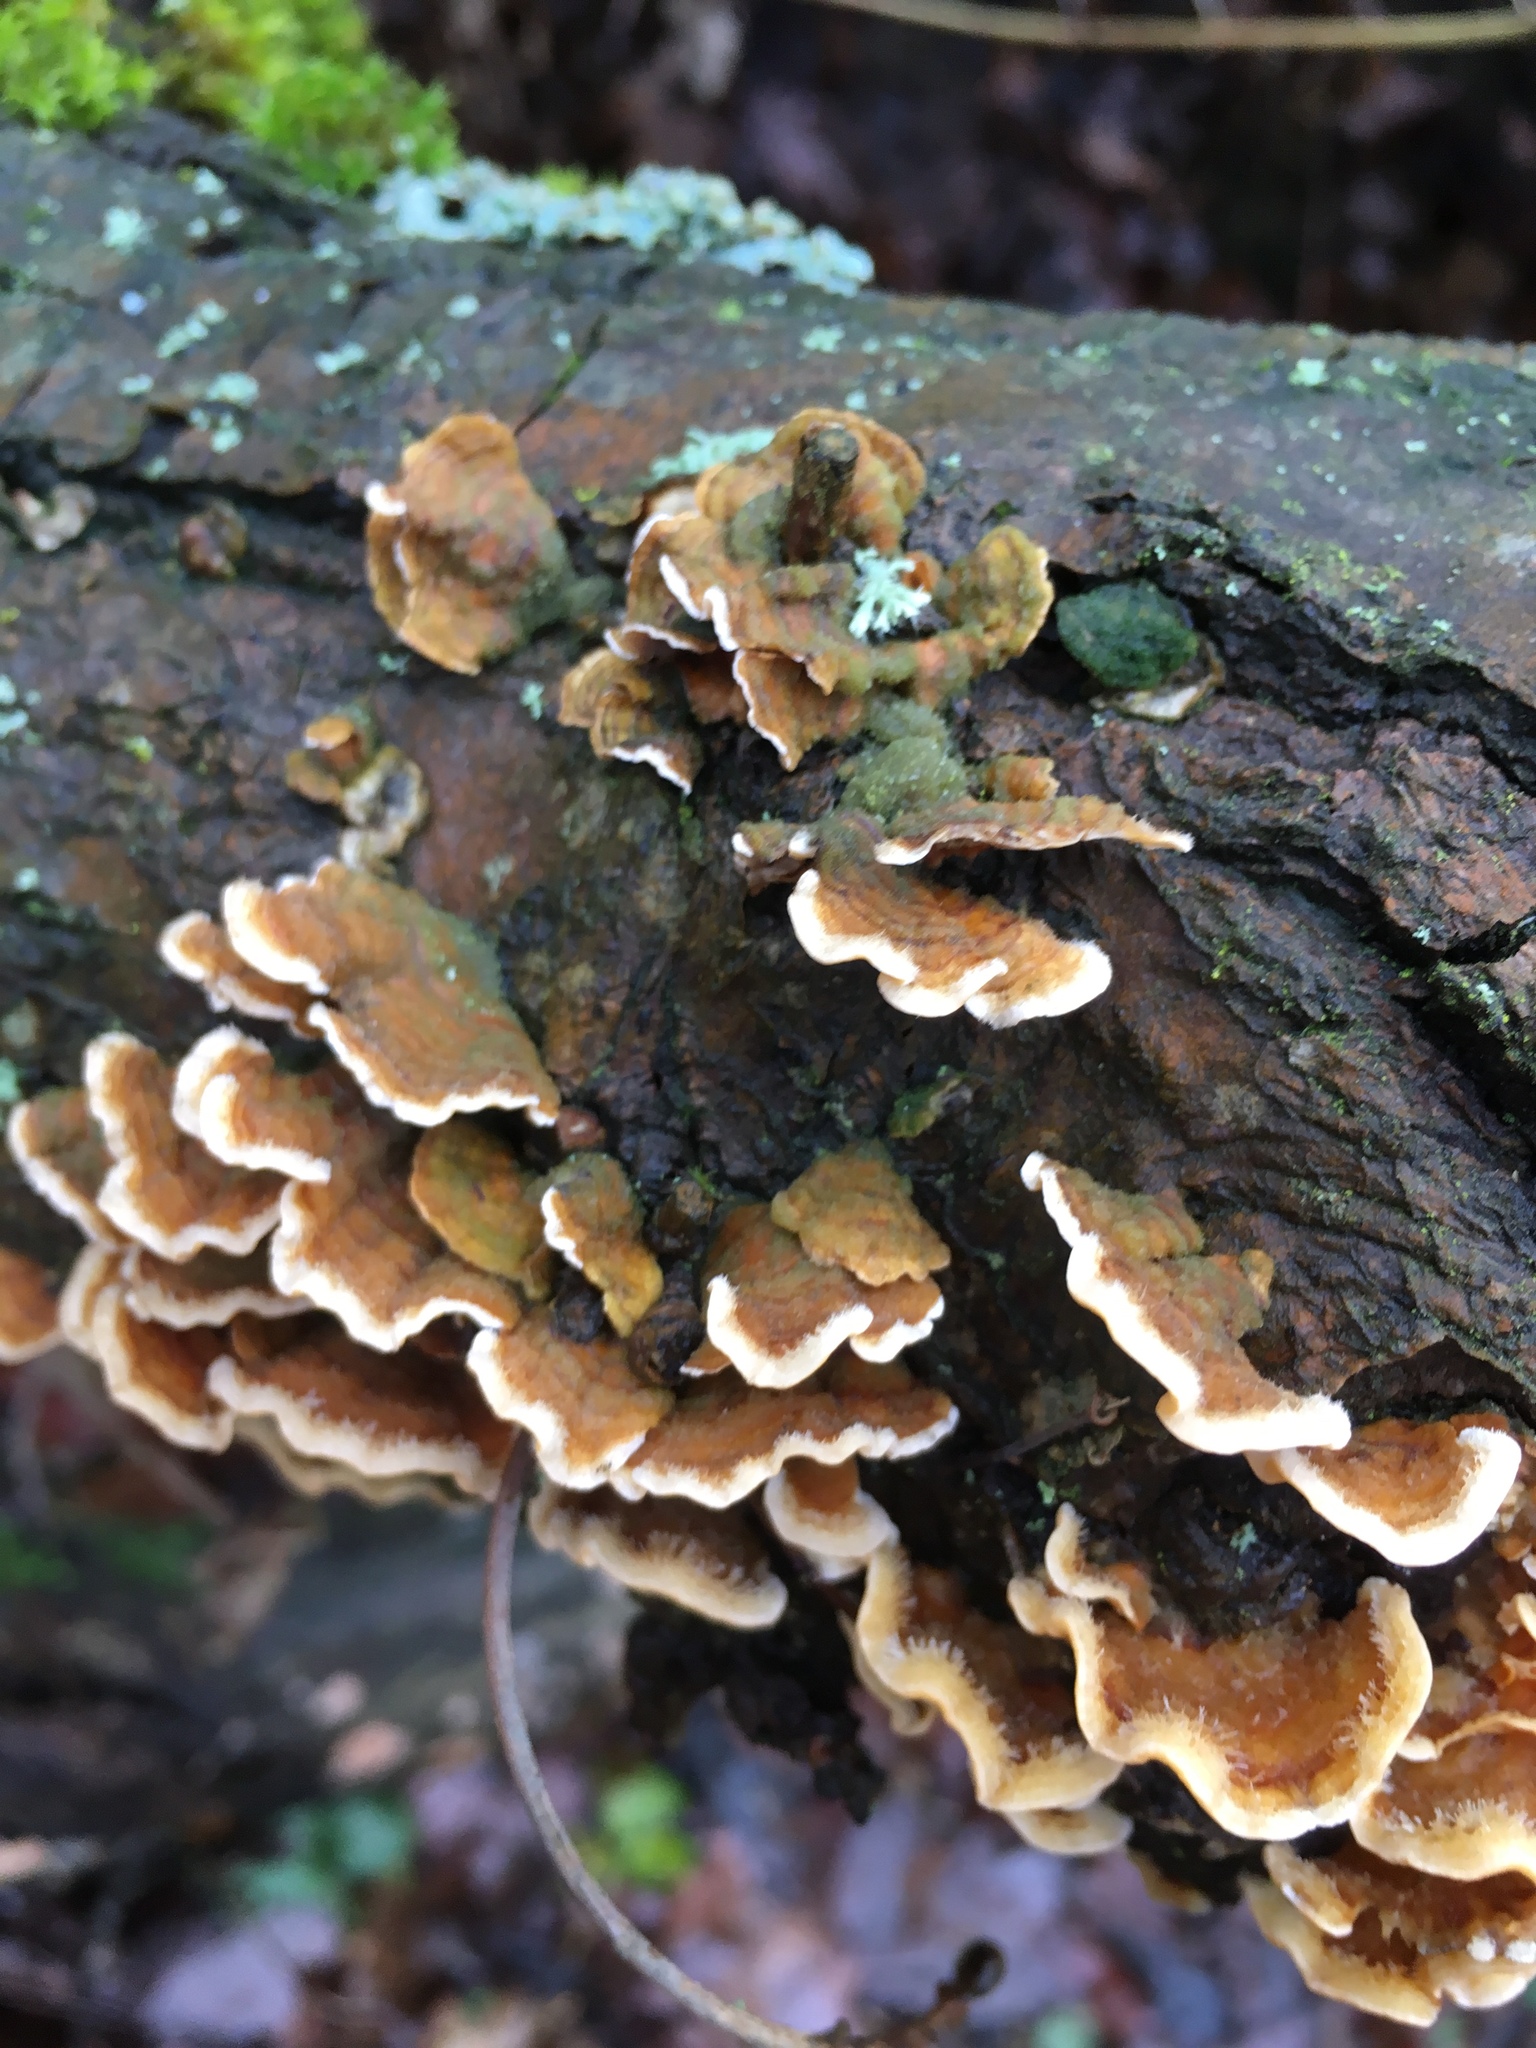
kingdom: Fungi
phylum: Basidiomycota
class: Agaricomycetes
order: Russulales
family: Stereaceae
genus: Stereum
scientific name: Stereum hirsutum
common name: Hairy curtain crust
